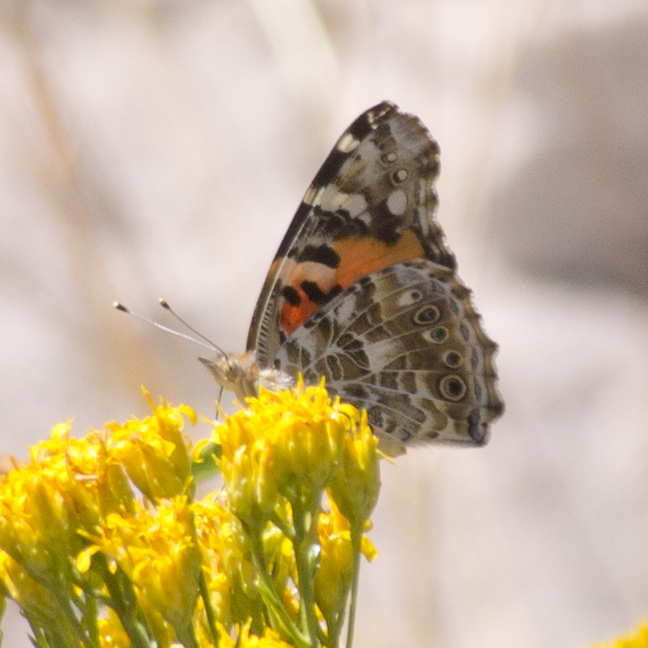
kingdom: Animalia
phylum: Arthropoda
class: Insecta
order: Lepidoptera
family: Nymphalidae
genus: Vanessa
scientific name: Vanessa cardui
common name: Painted lady
